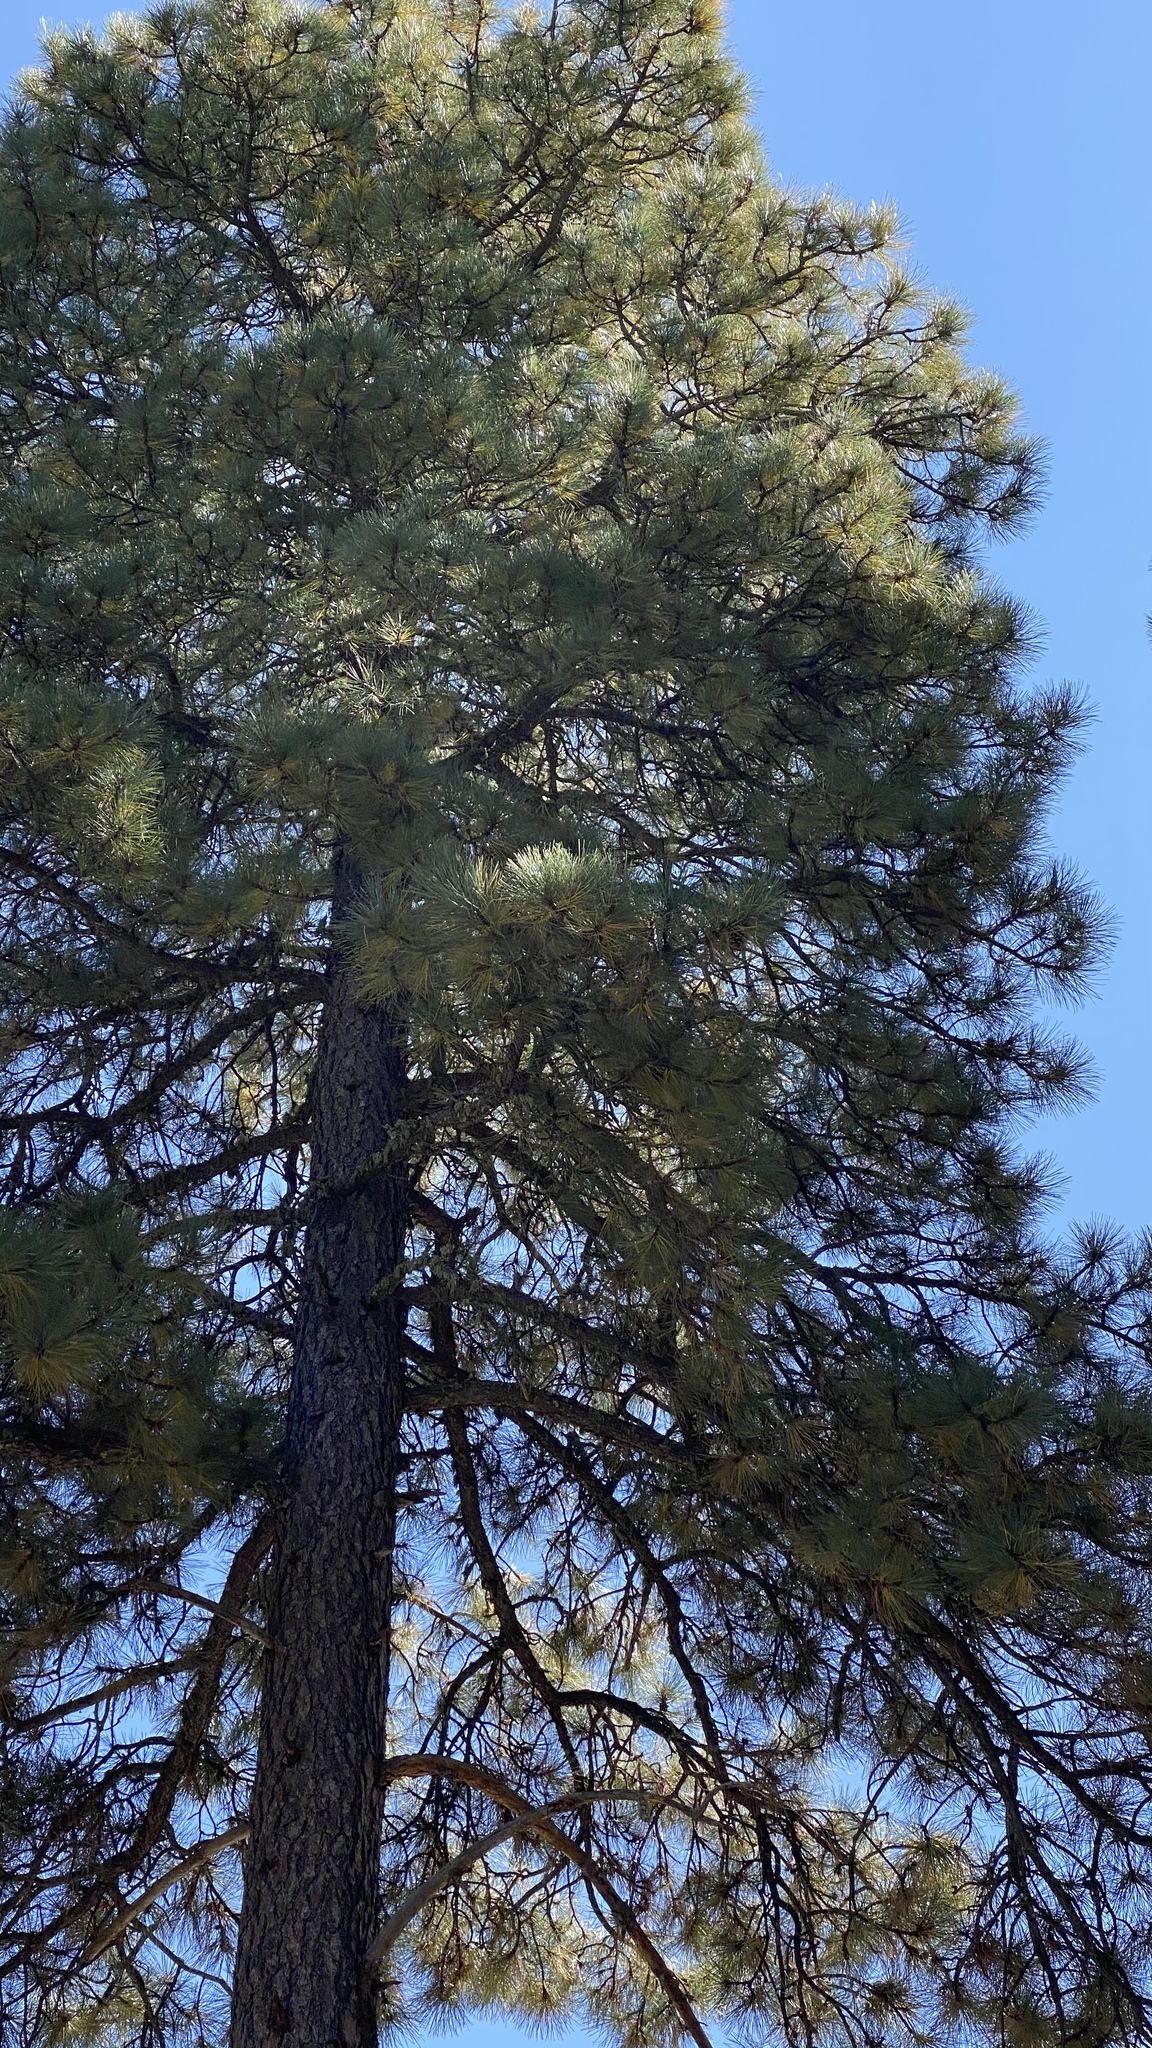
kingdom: Plantae
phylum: Tracheophyta
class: Pinopsida
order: Pinales
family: Pinaceae
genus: Pinus
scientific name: Pinus ponderosa
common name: Western yellow-pine
